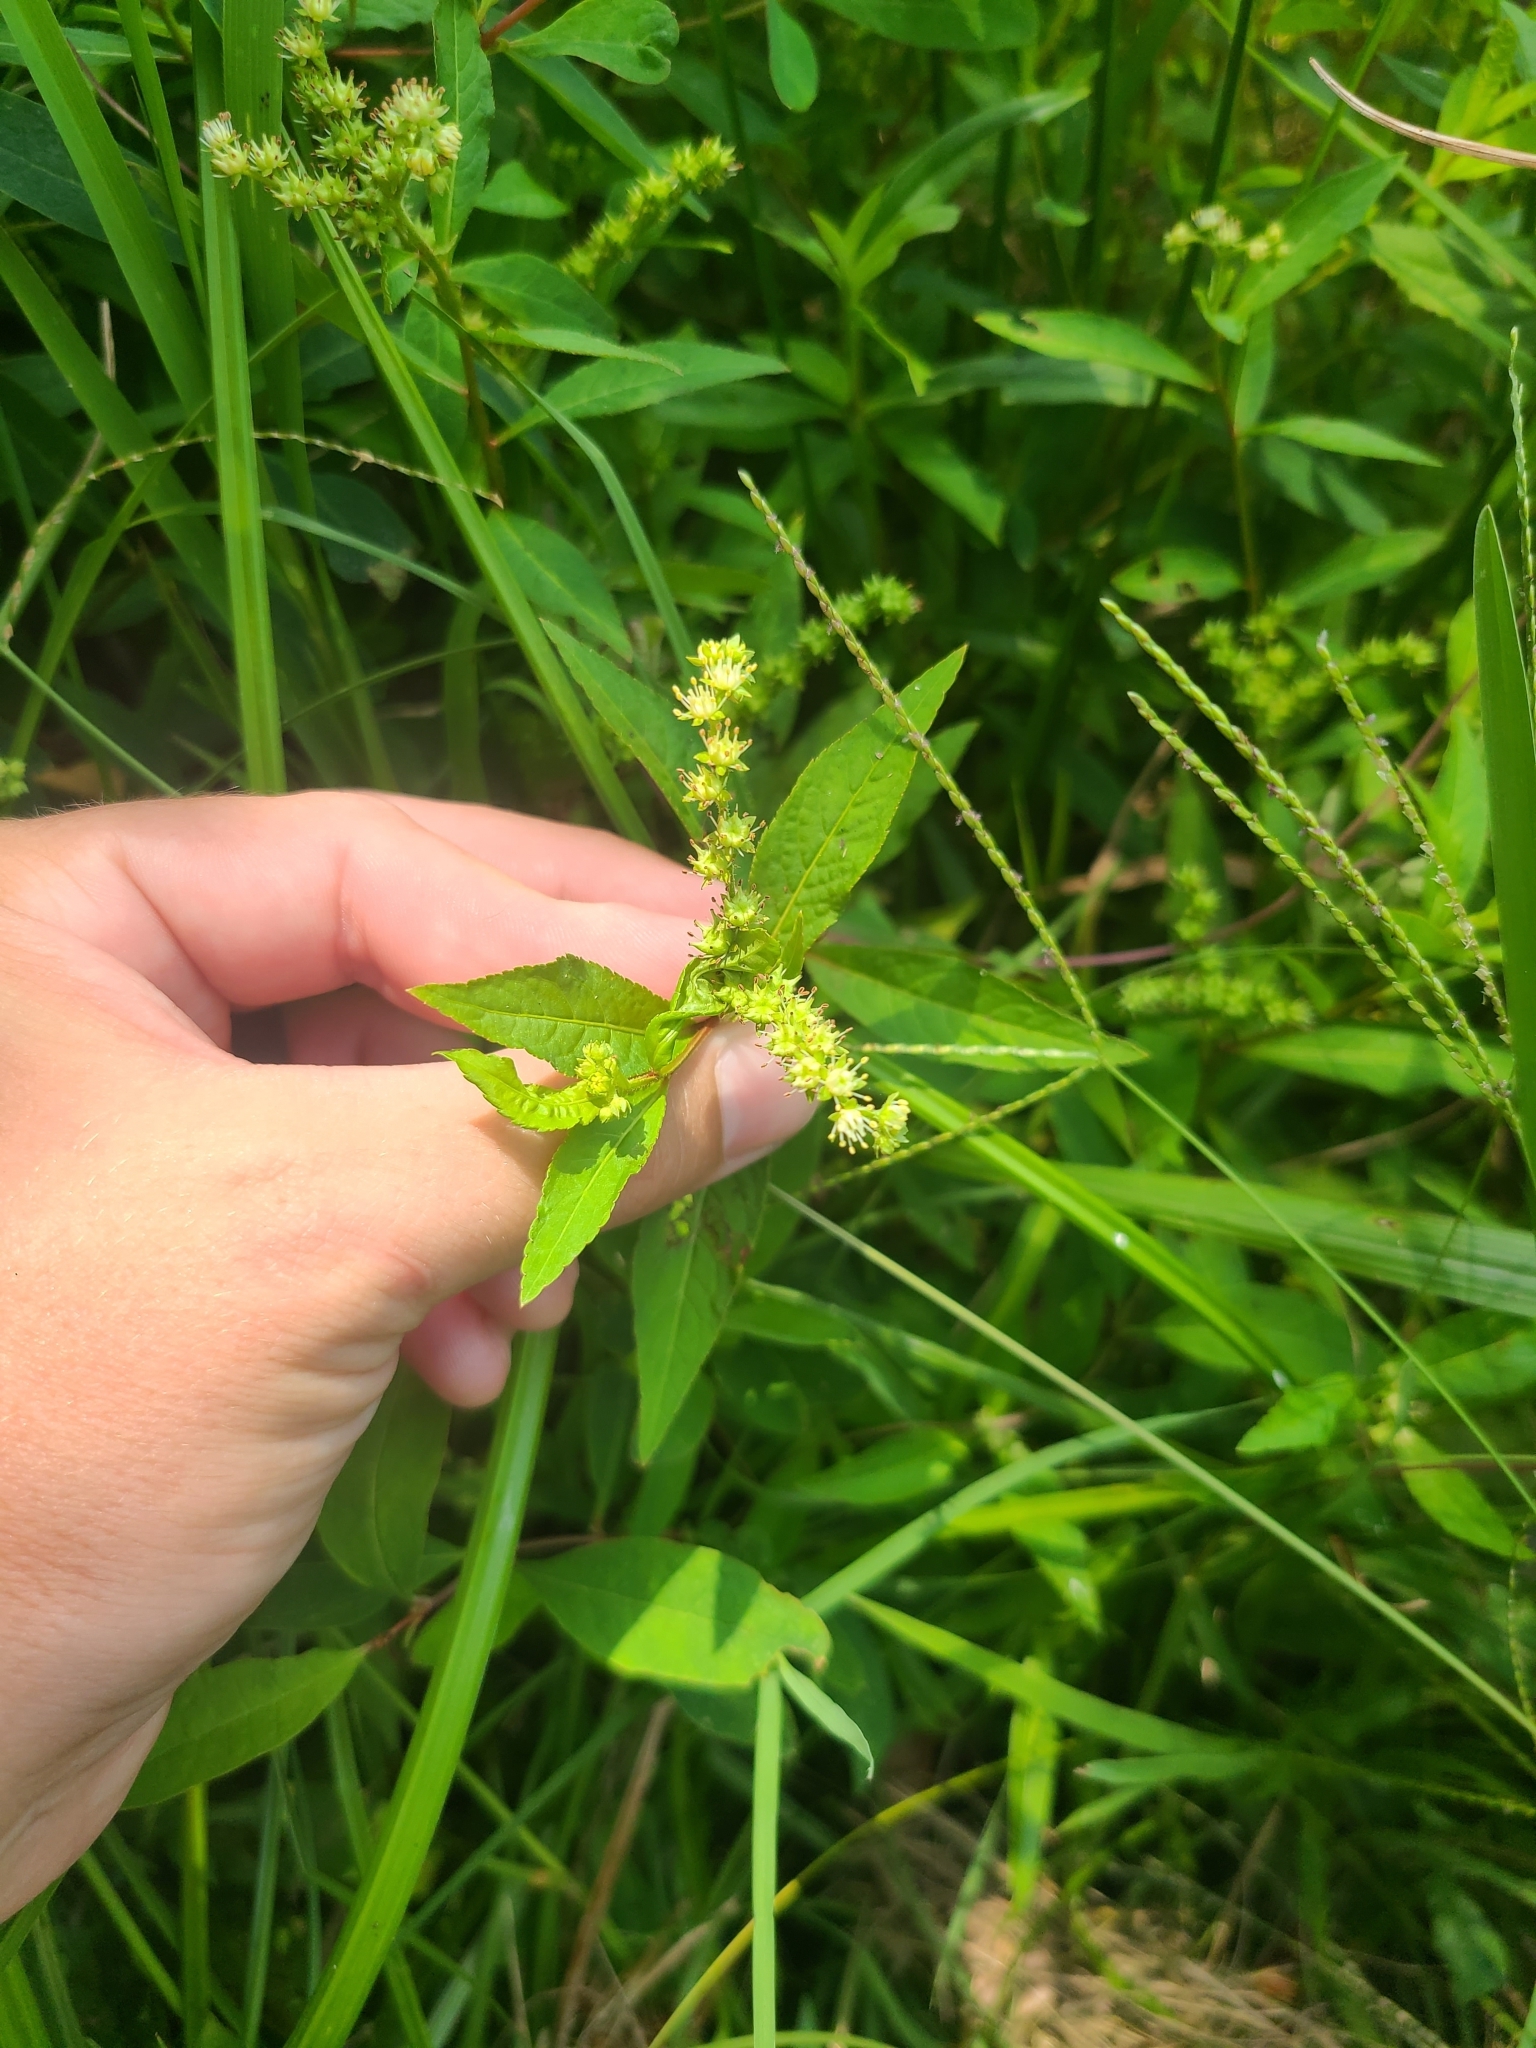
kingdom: Plantae
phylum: Tracheophyta
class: Magnoliopsida
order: Saxifragales
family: Penthoraceae
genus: Penthorum
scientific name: Penthorum sedoides
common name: Ditch stonecrop
